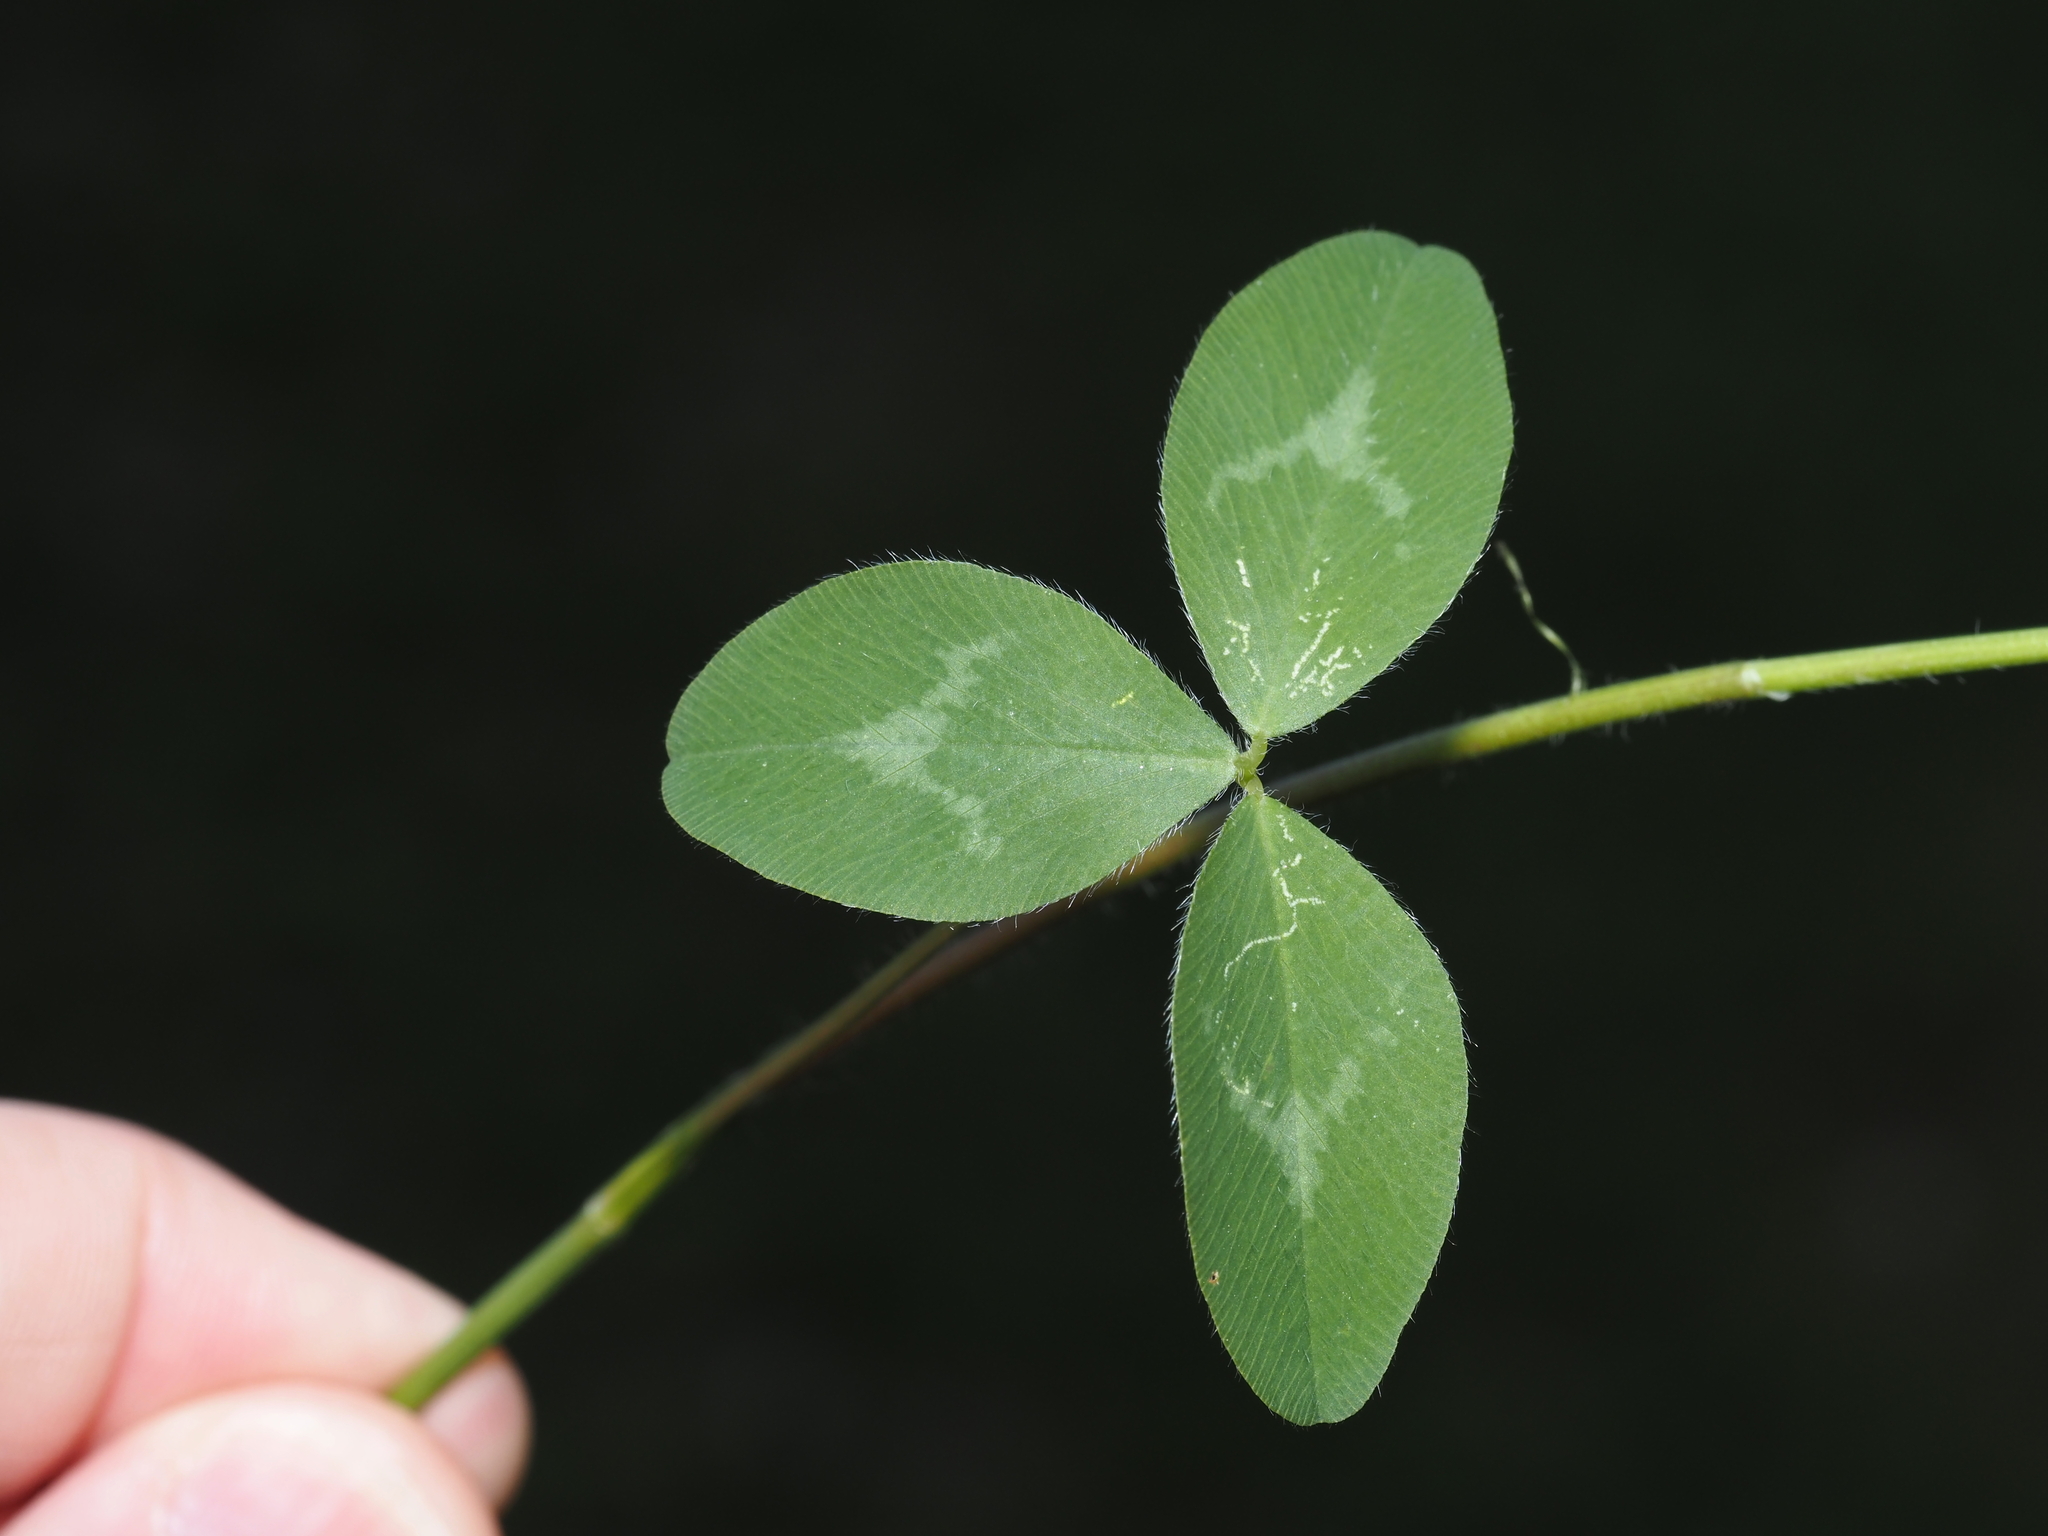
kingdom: Plantae
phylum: Tracheophyta
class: Magnoliopsida
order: Fabales
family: Fabaceae
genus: Trifolium
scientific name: Trifolium pratense
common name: Red clover
